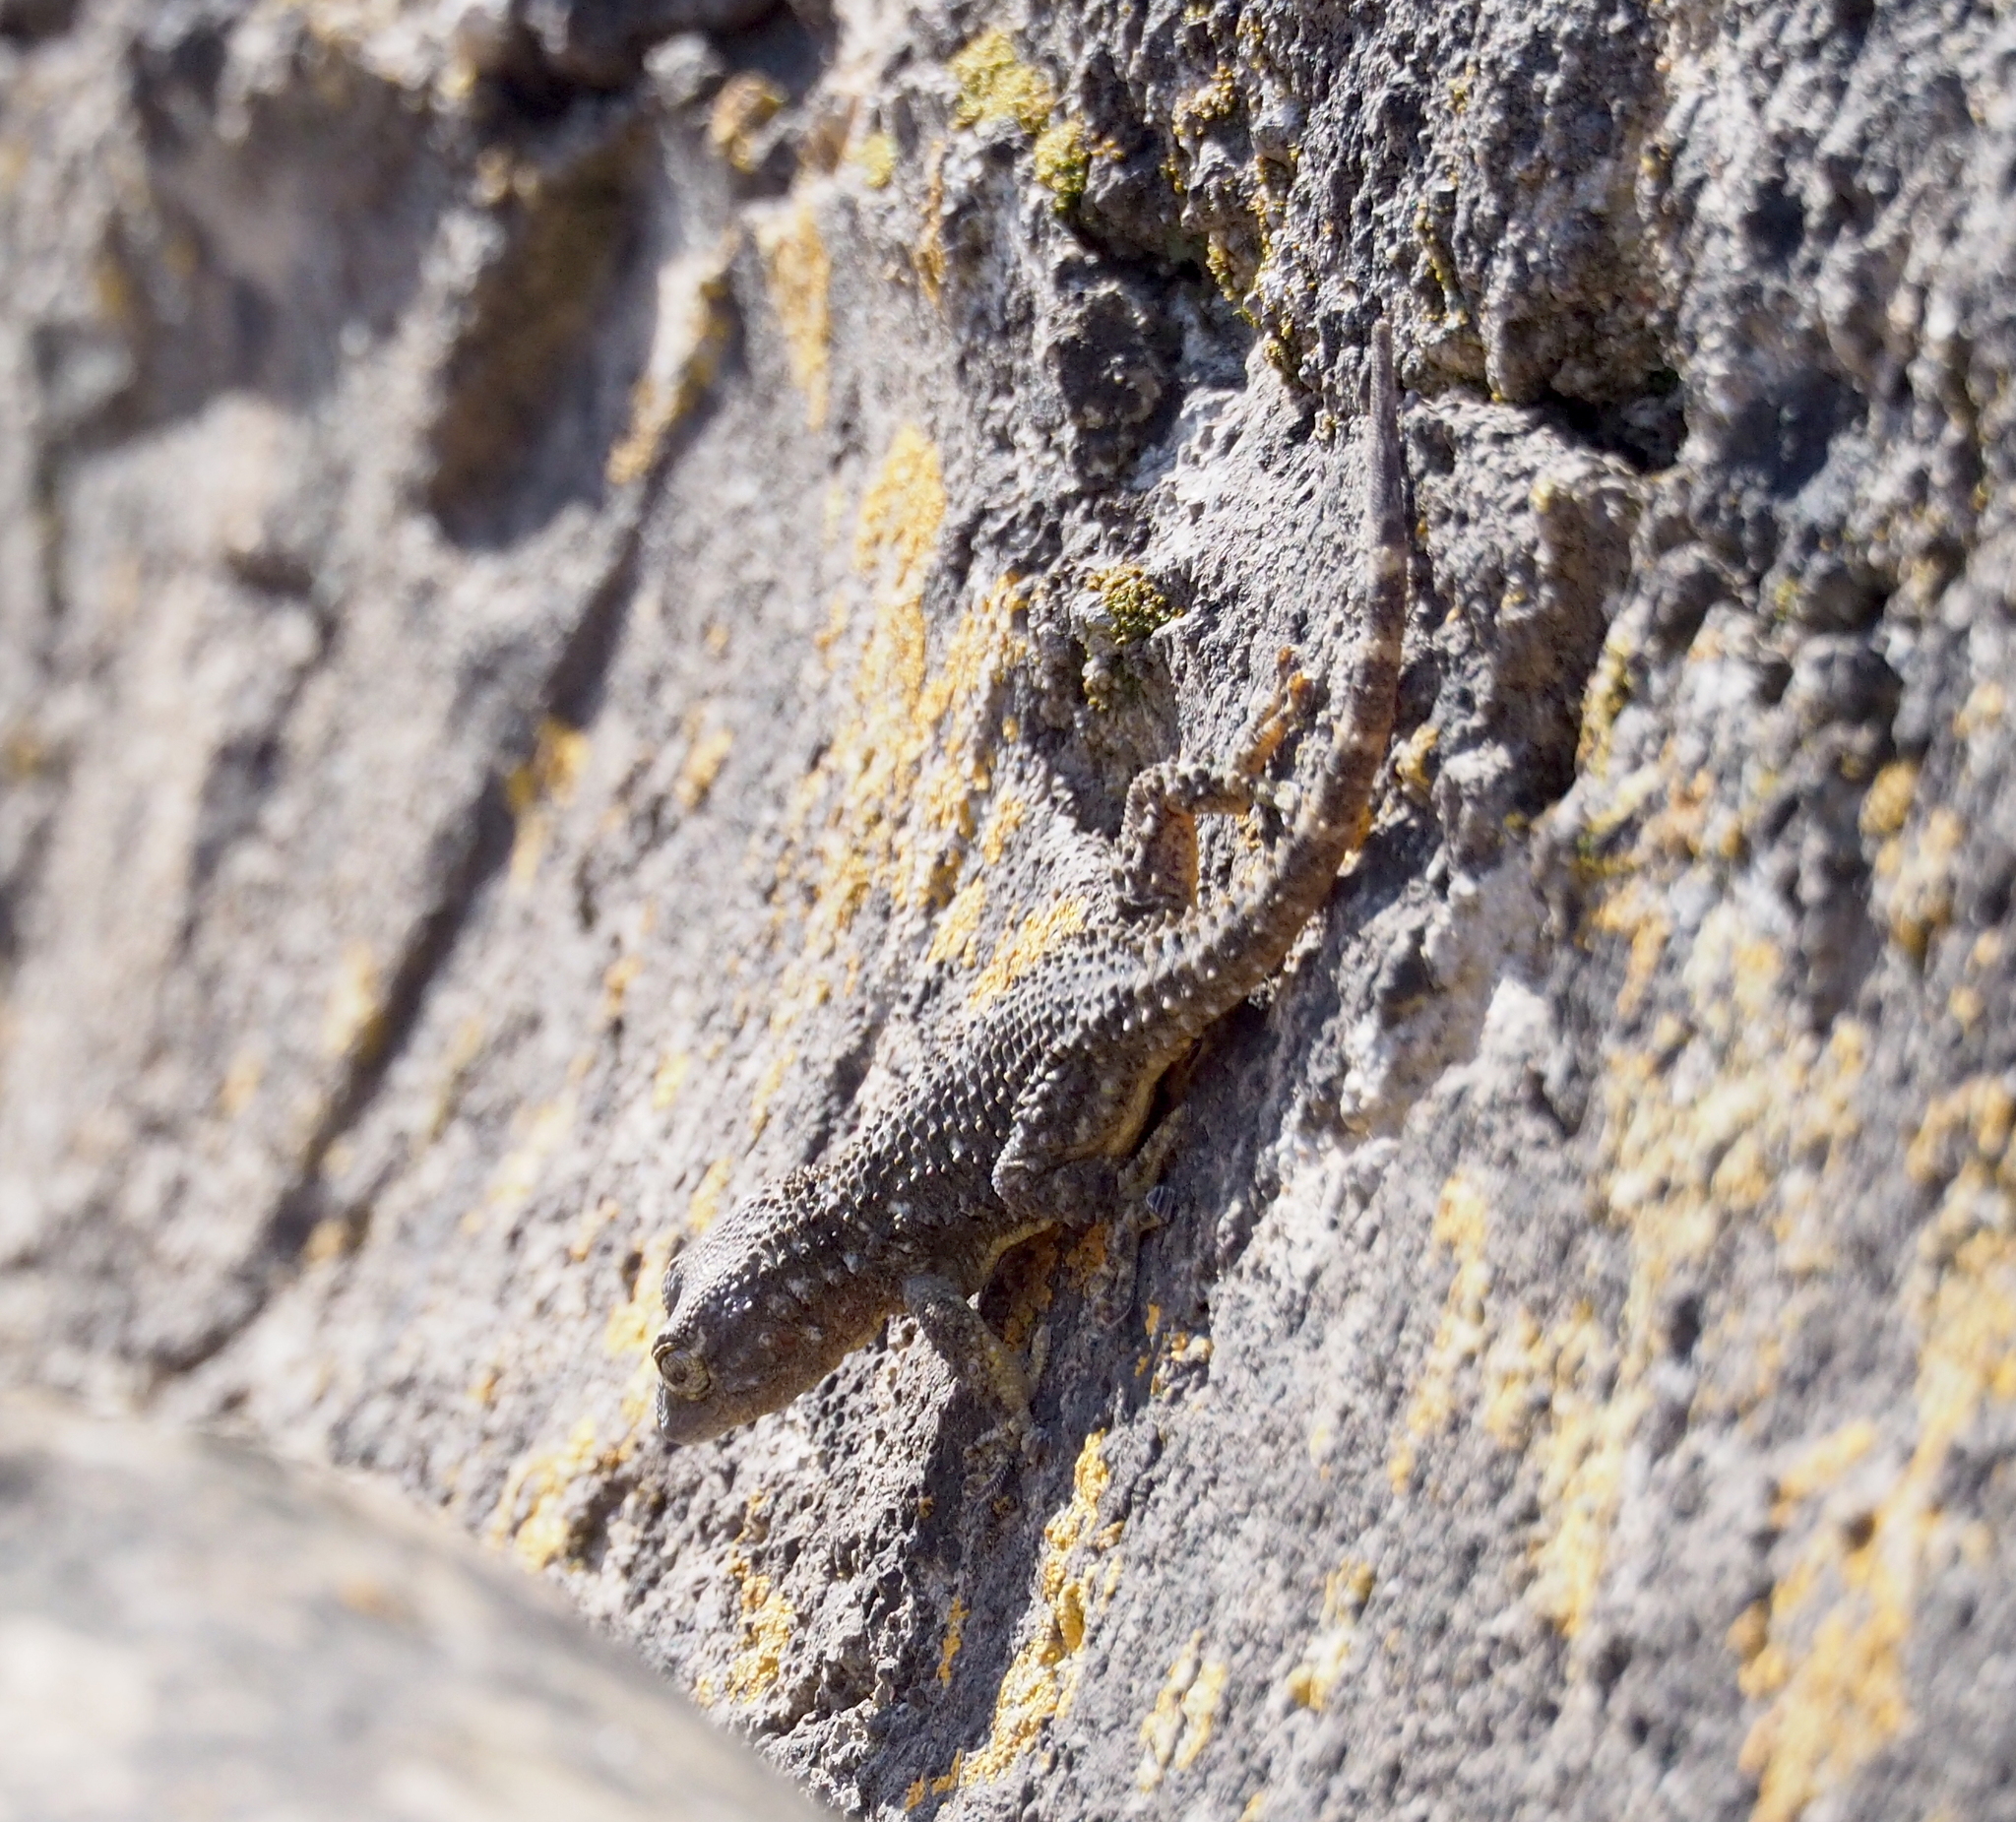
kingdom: Animalia
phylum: Chordata
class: Squamata
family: Phyllodactylidae
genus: Tarentola
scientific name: Tarentola mauritanica
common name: Moorish gecko
